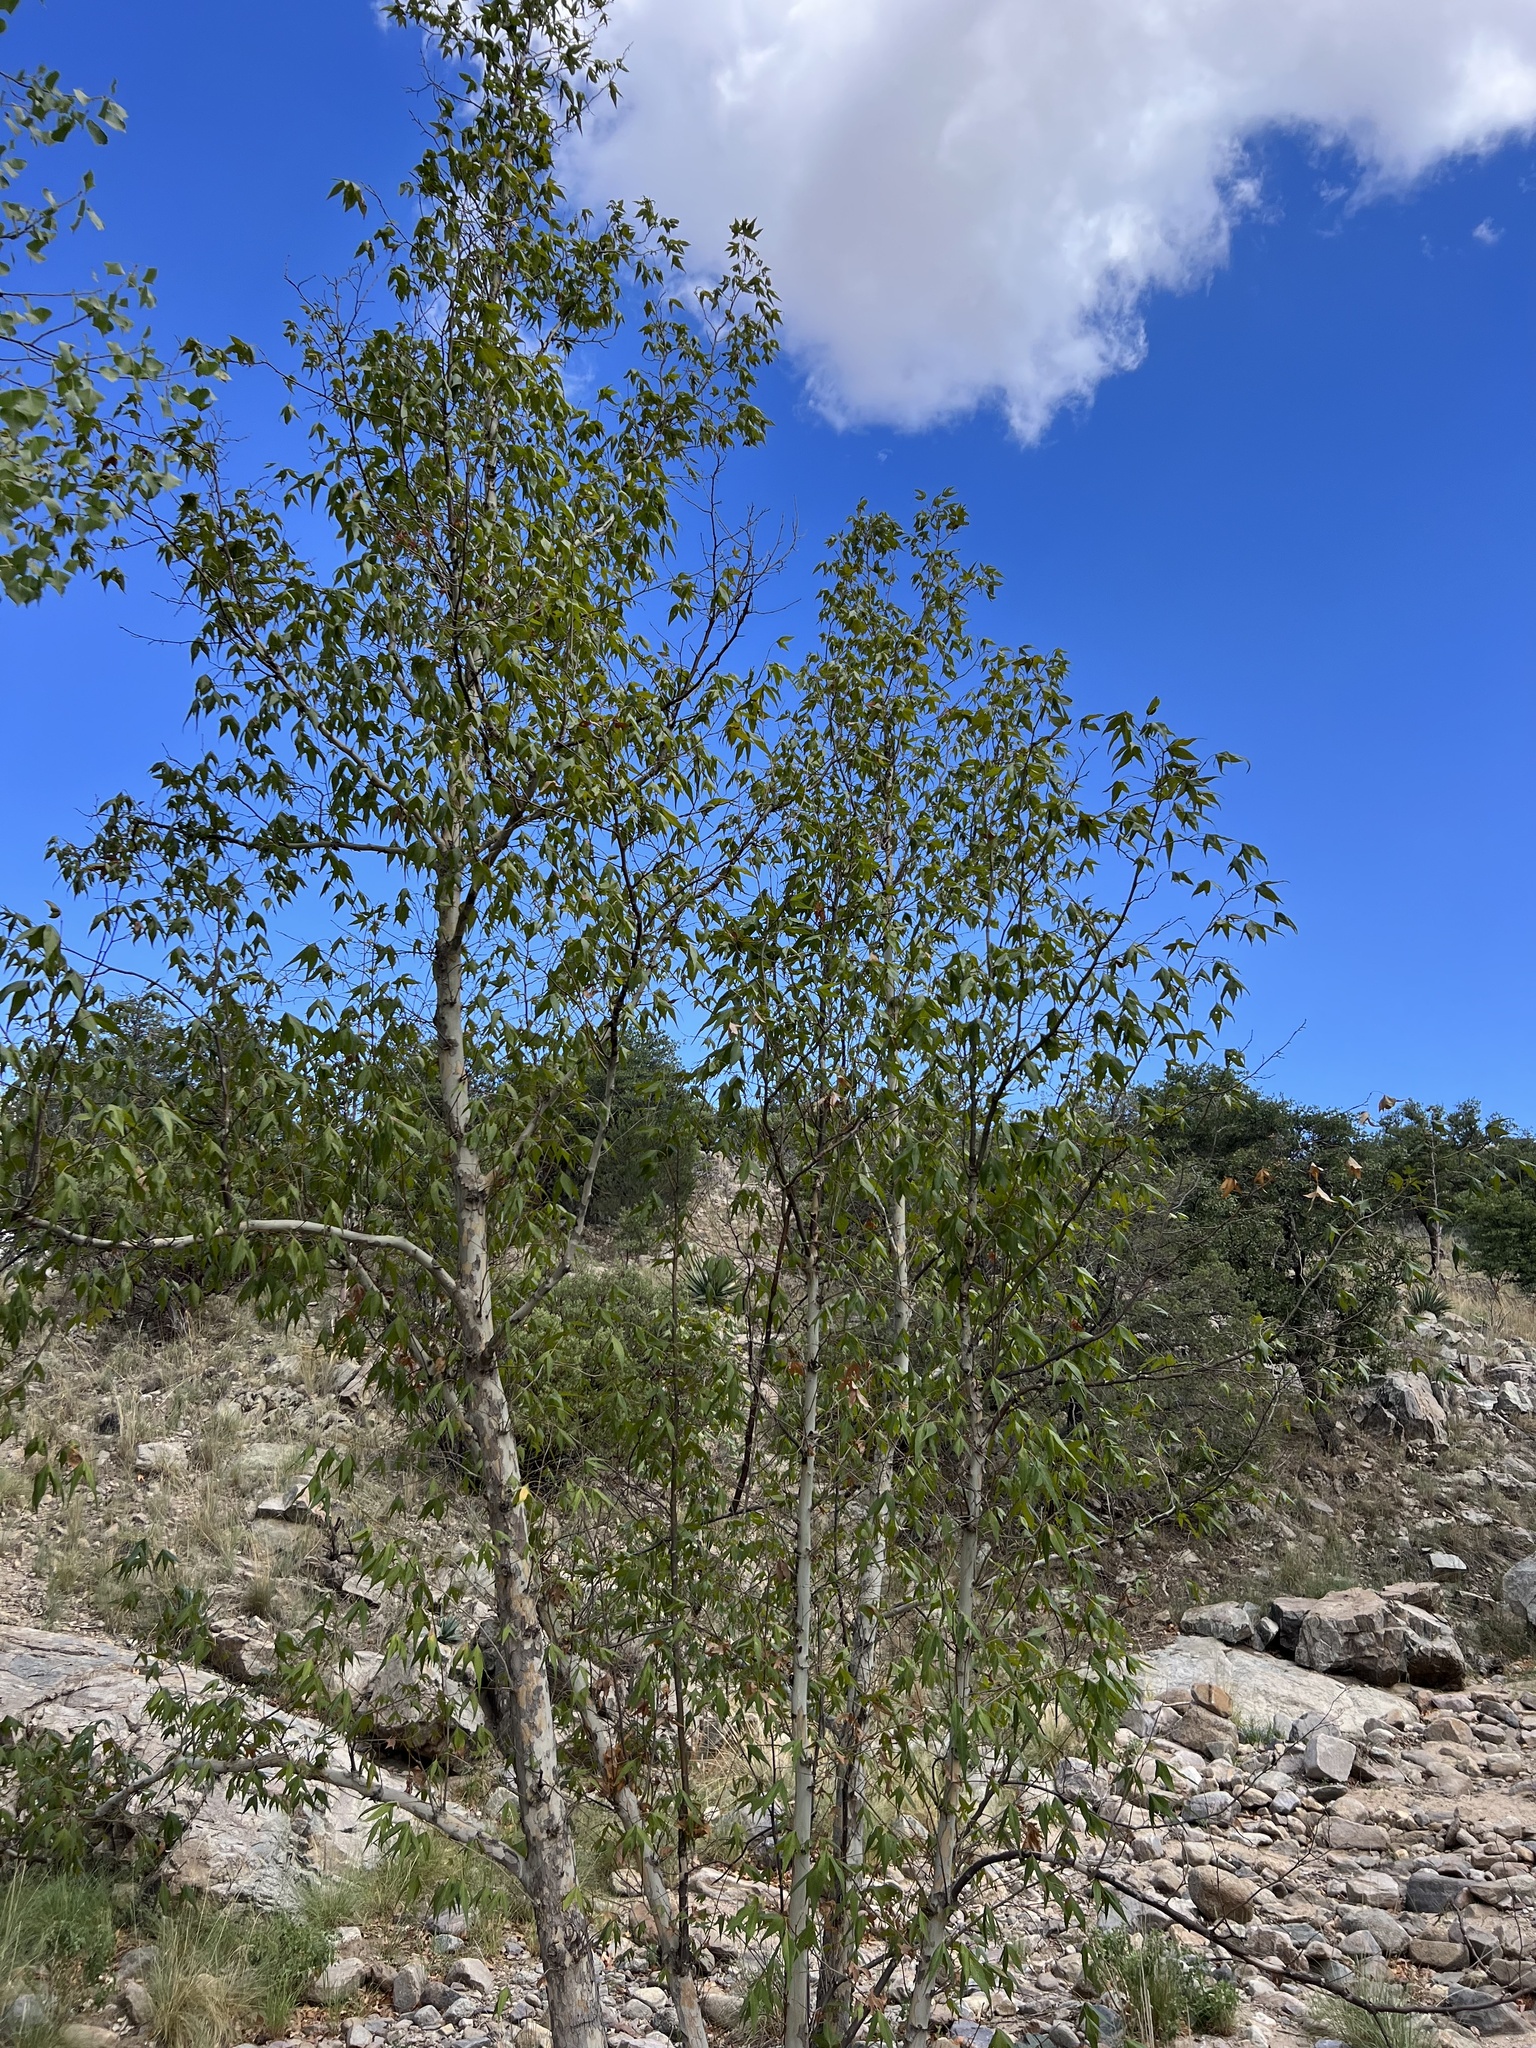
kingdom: Plantae
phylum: Tracheophyta
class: Magnoliopsida
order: Proteales
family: Platanaceae
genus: Platanus
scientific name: Platanus wrightii
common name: Arizona sycamore
